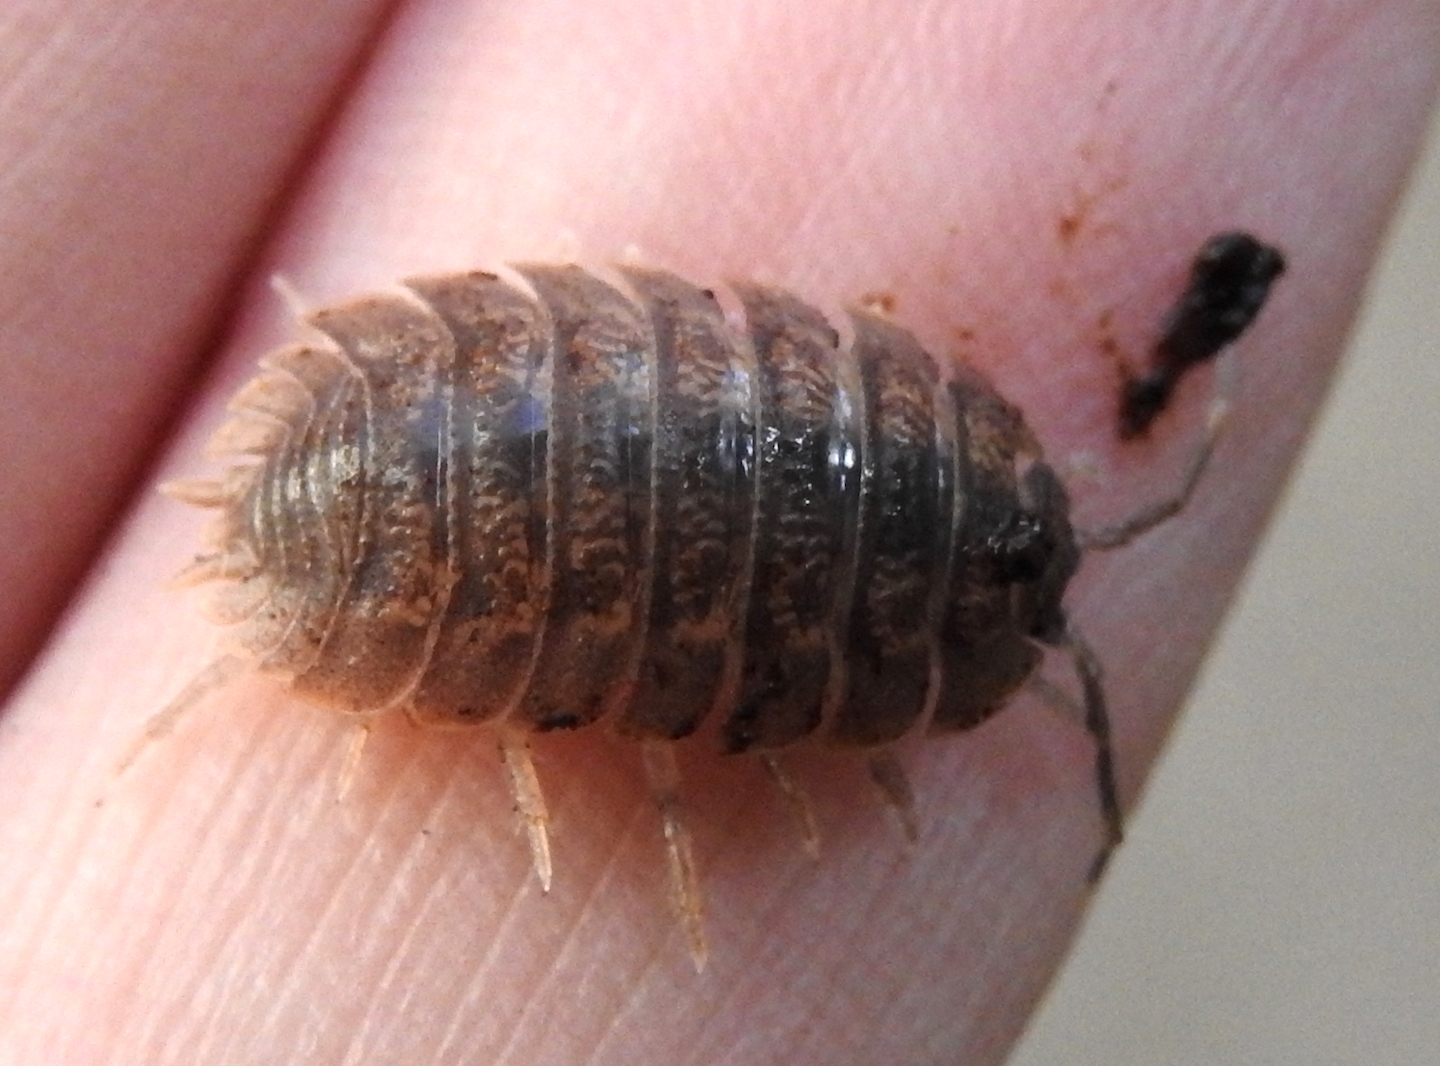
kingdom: Animalia
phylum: Arthropoda
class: Malacostraca
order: Isopoda
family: Porcellionidae
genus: Porcellio
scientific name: Porcellio dilatatus
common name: Isopod
